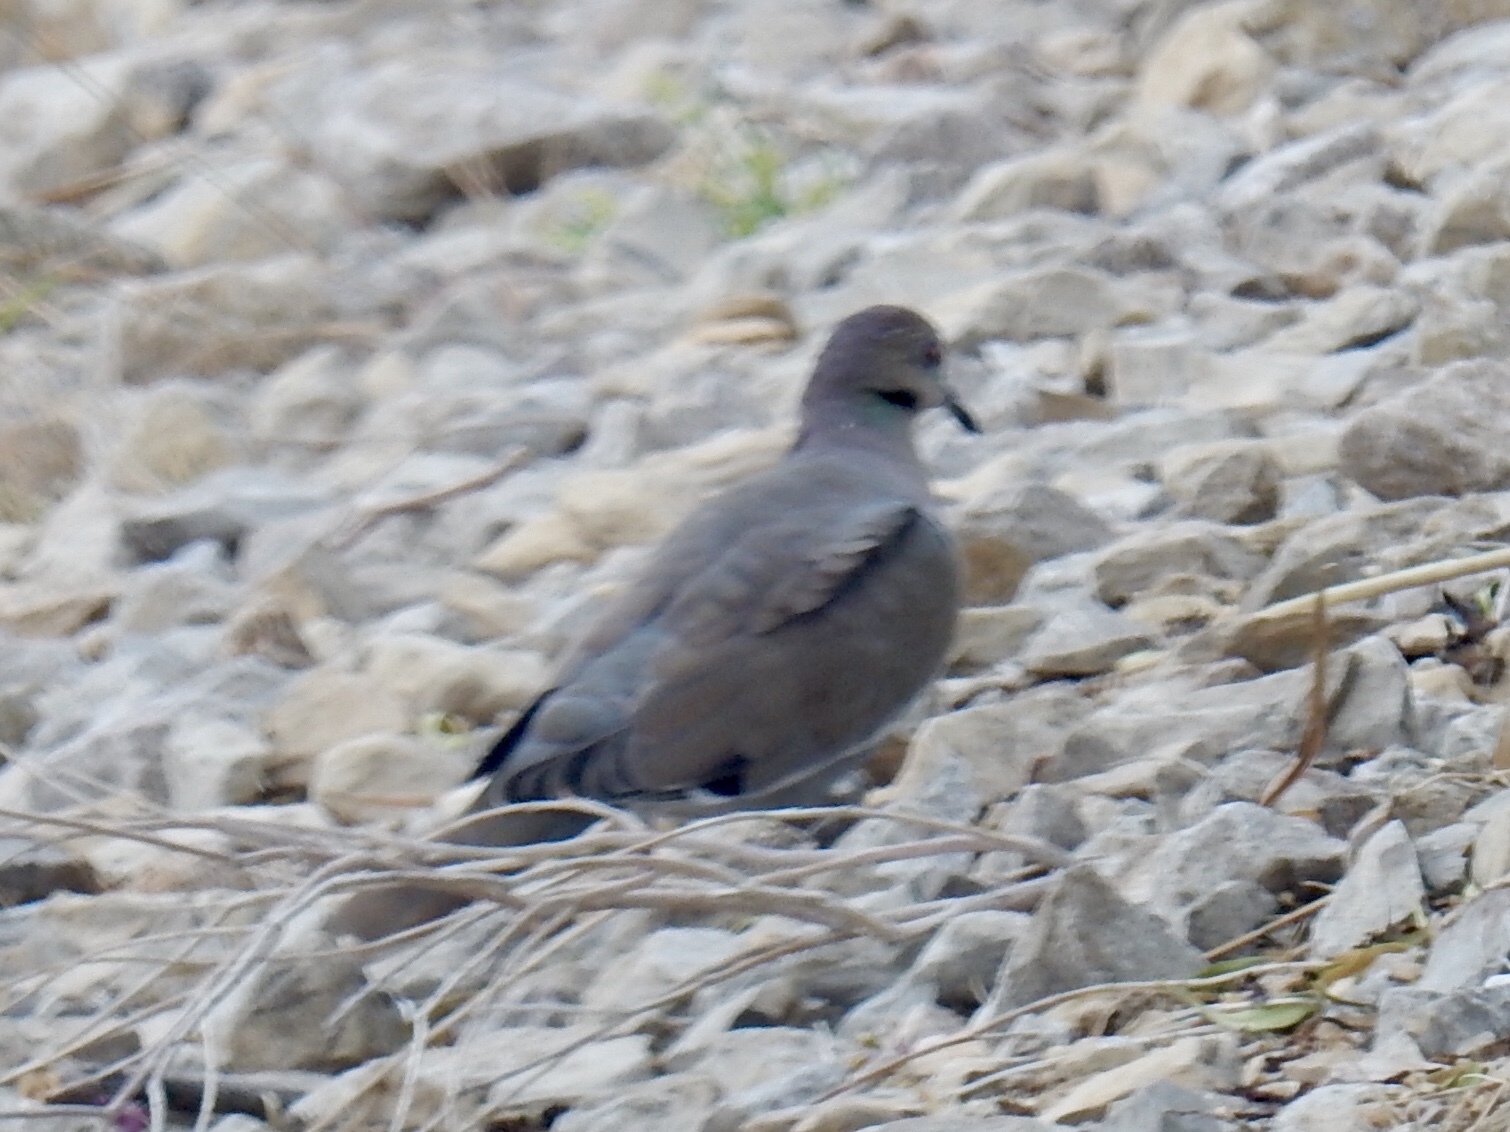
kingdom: Animalia
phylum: Chordata
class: Aves
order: Columbiformes
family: Columbidae
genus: Zenaida
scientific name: Zenaida asiatica
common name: White-winged dove
